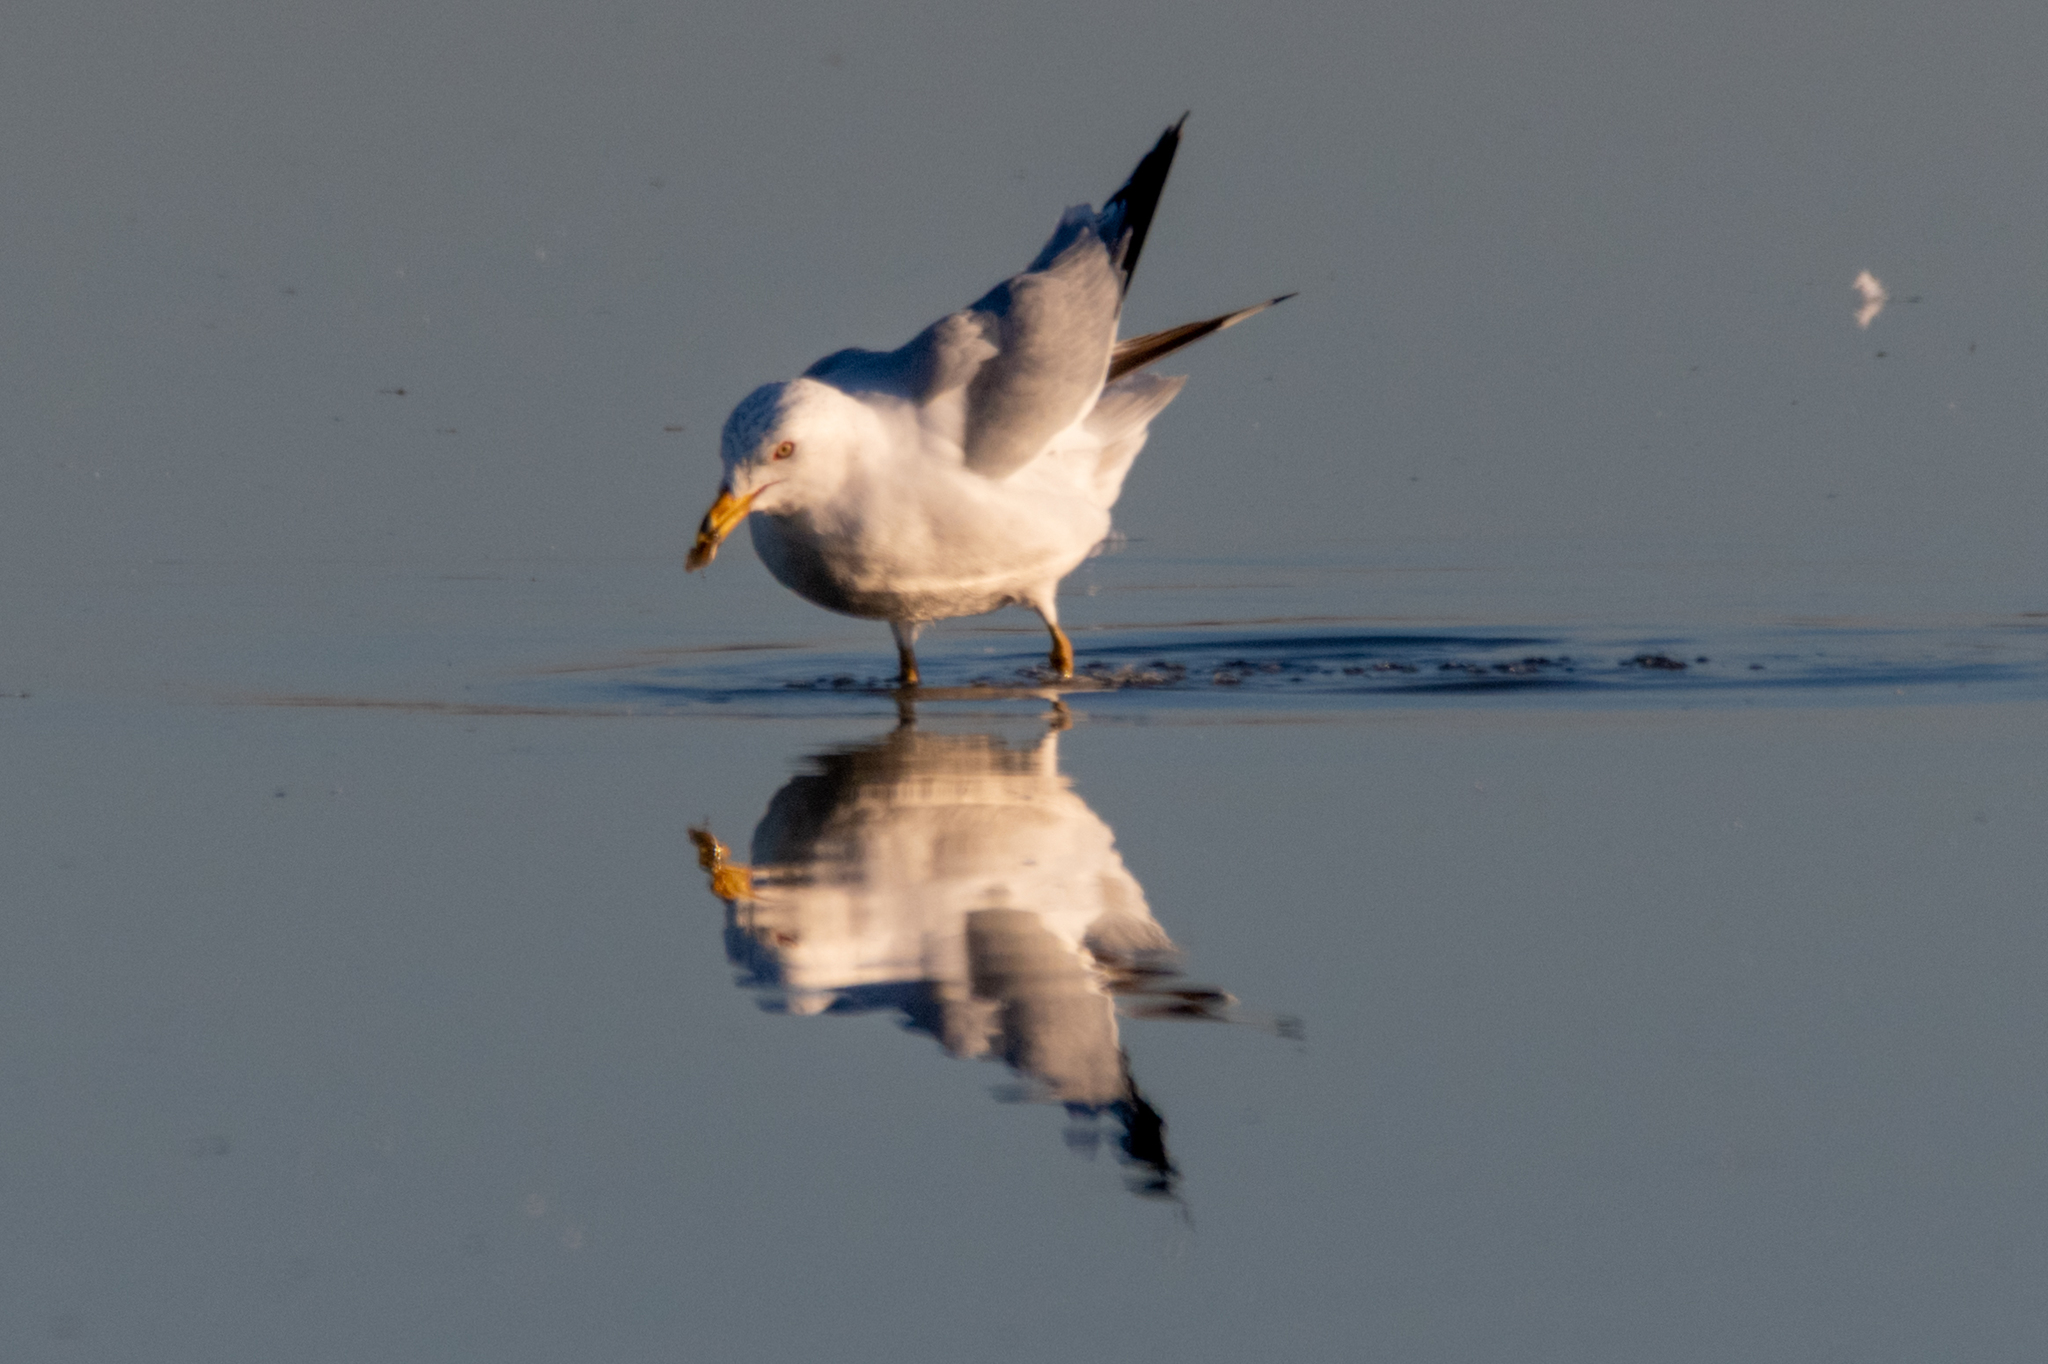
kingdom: Animalia
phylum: Chordata
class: Aves
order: Charadriiformes
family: Laridae
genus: Larus
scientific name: Larus delawarensis
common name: Ring-billed gull
